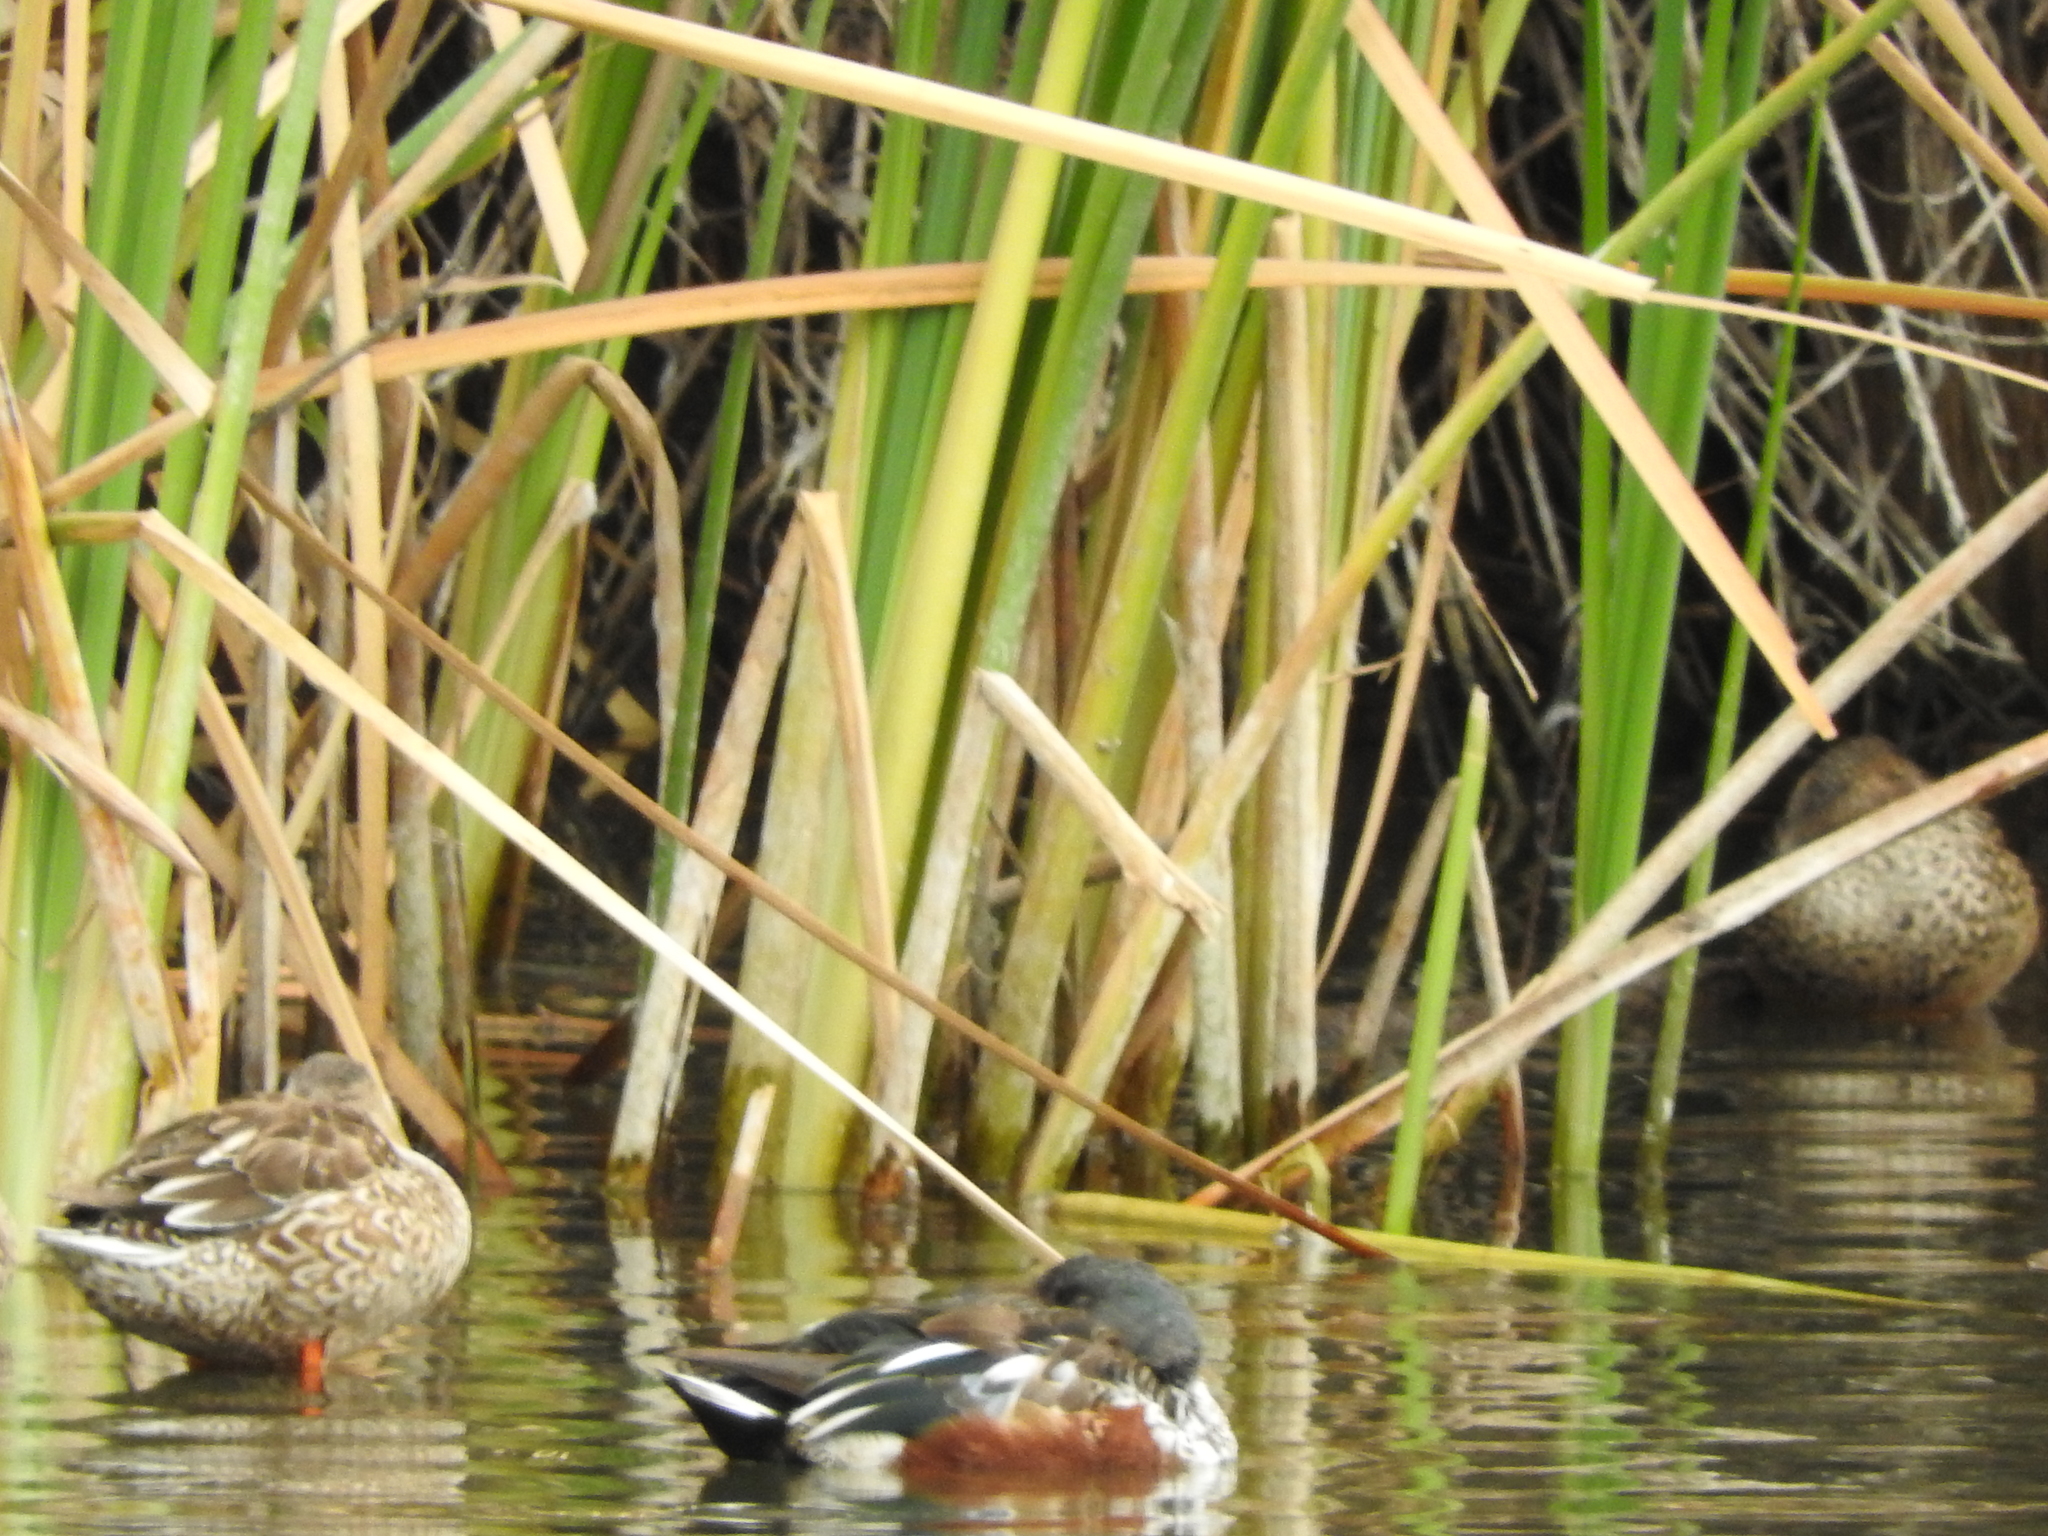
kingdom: Animalia
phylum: Chordata
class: Aves
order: Anseriformes
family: Anatidae
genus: Spatula
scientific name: Spatula clypeata
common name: Northern shoveler
